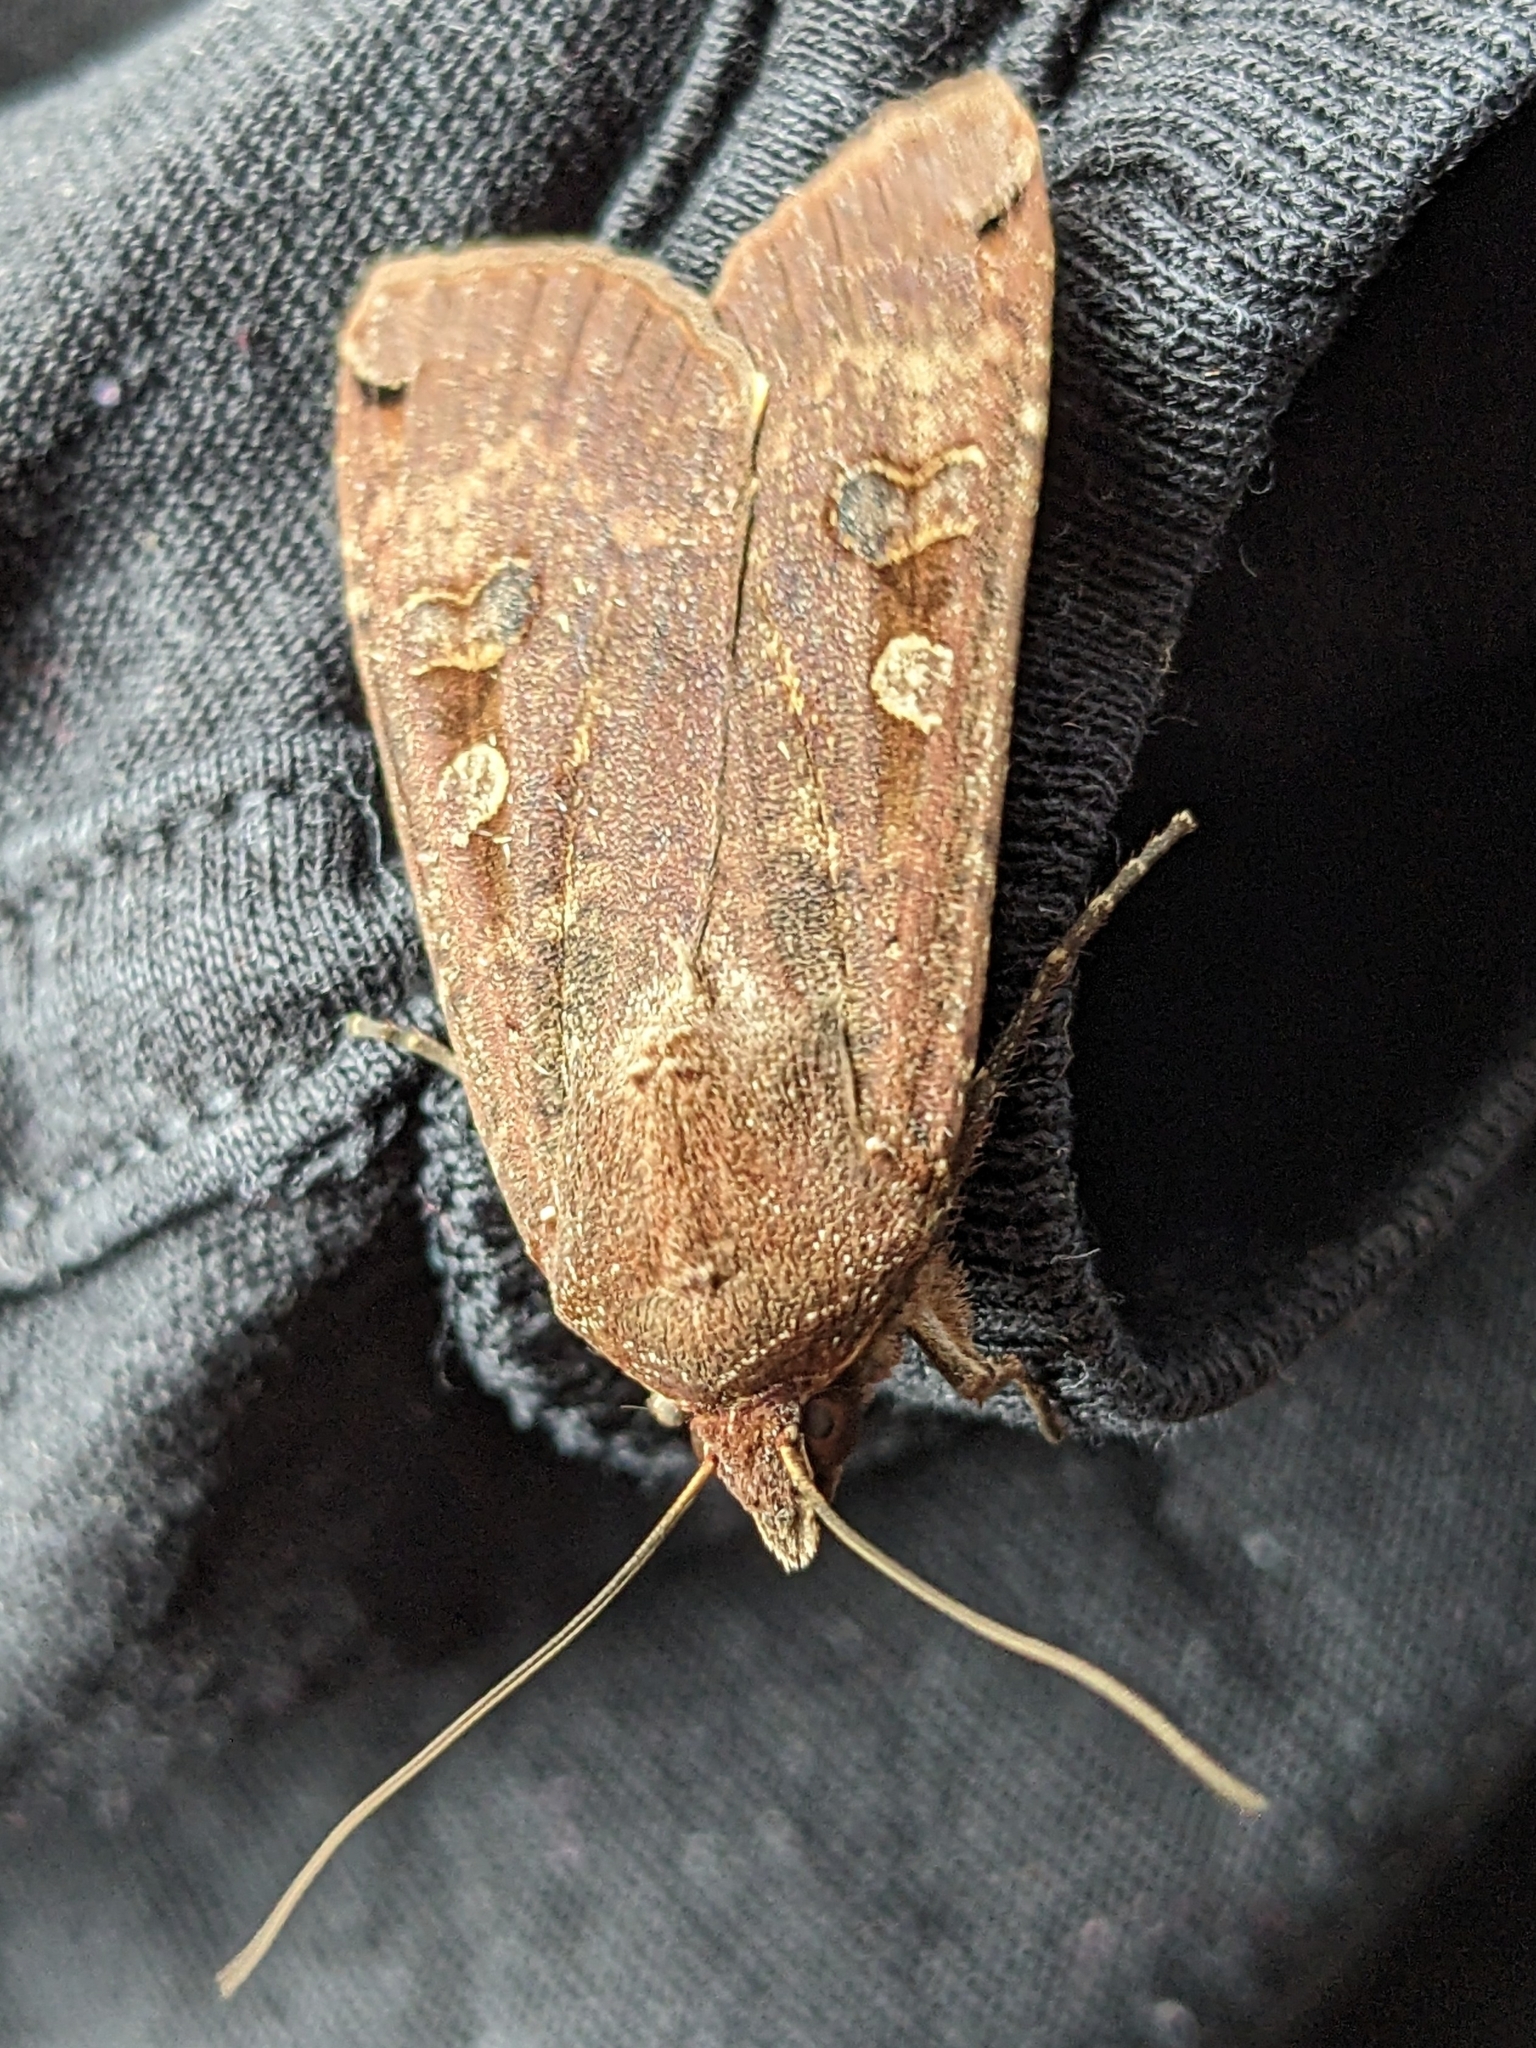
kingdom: Animalia
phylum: Arthropoda
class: Insecta
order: Lepidoptera
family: Noctuidae
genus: Noctua
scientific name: Noctua pronuba
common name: Large yellow underwing
